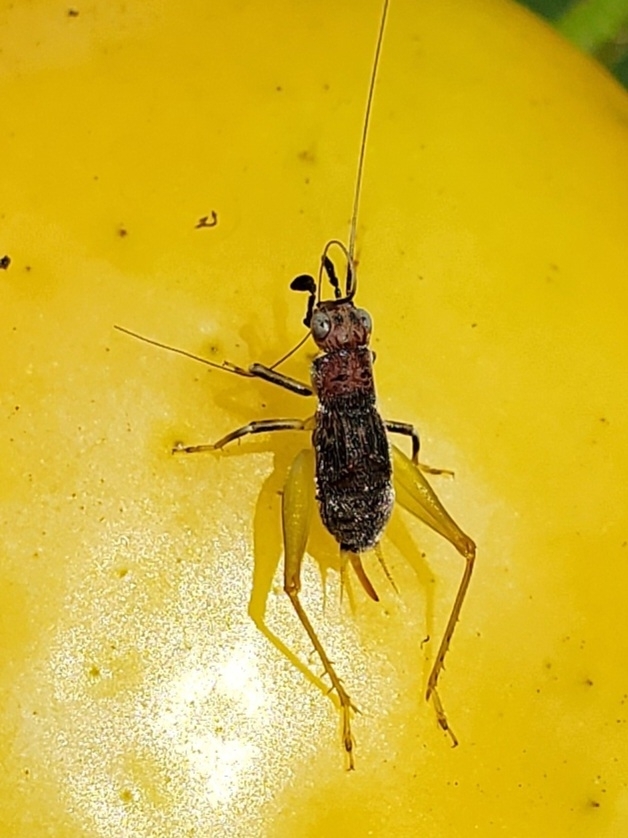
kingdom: Animalia
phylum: Arthropoda
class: Insecta
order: Orthoptera
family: Trigonidiidae
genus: Phyllopalpus
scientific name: Phyllopalpus pulchellus
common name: Handsome trig
